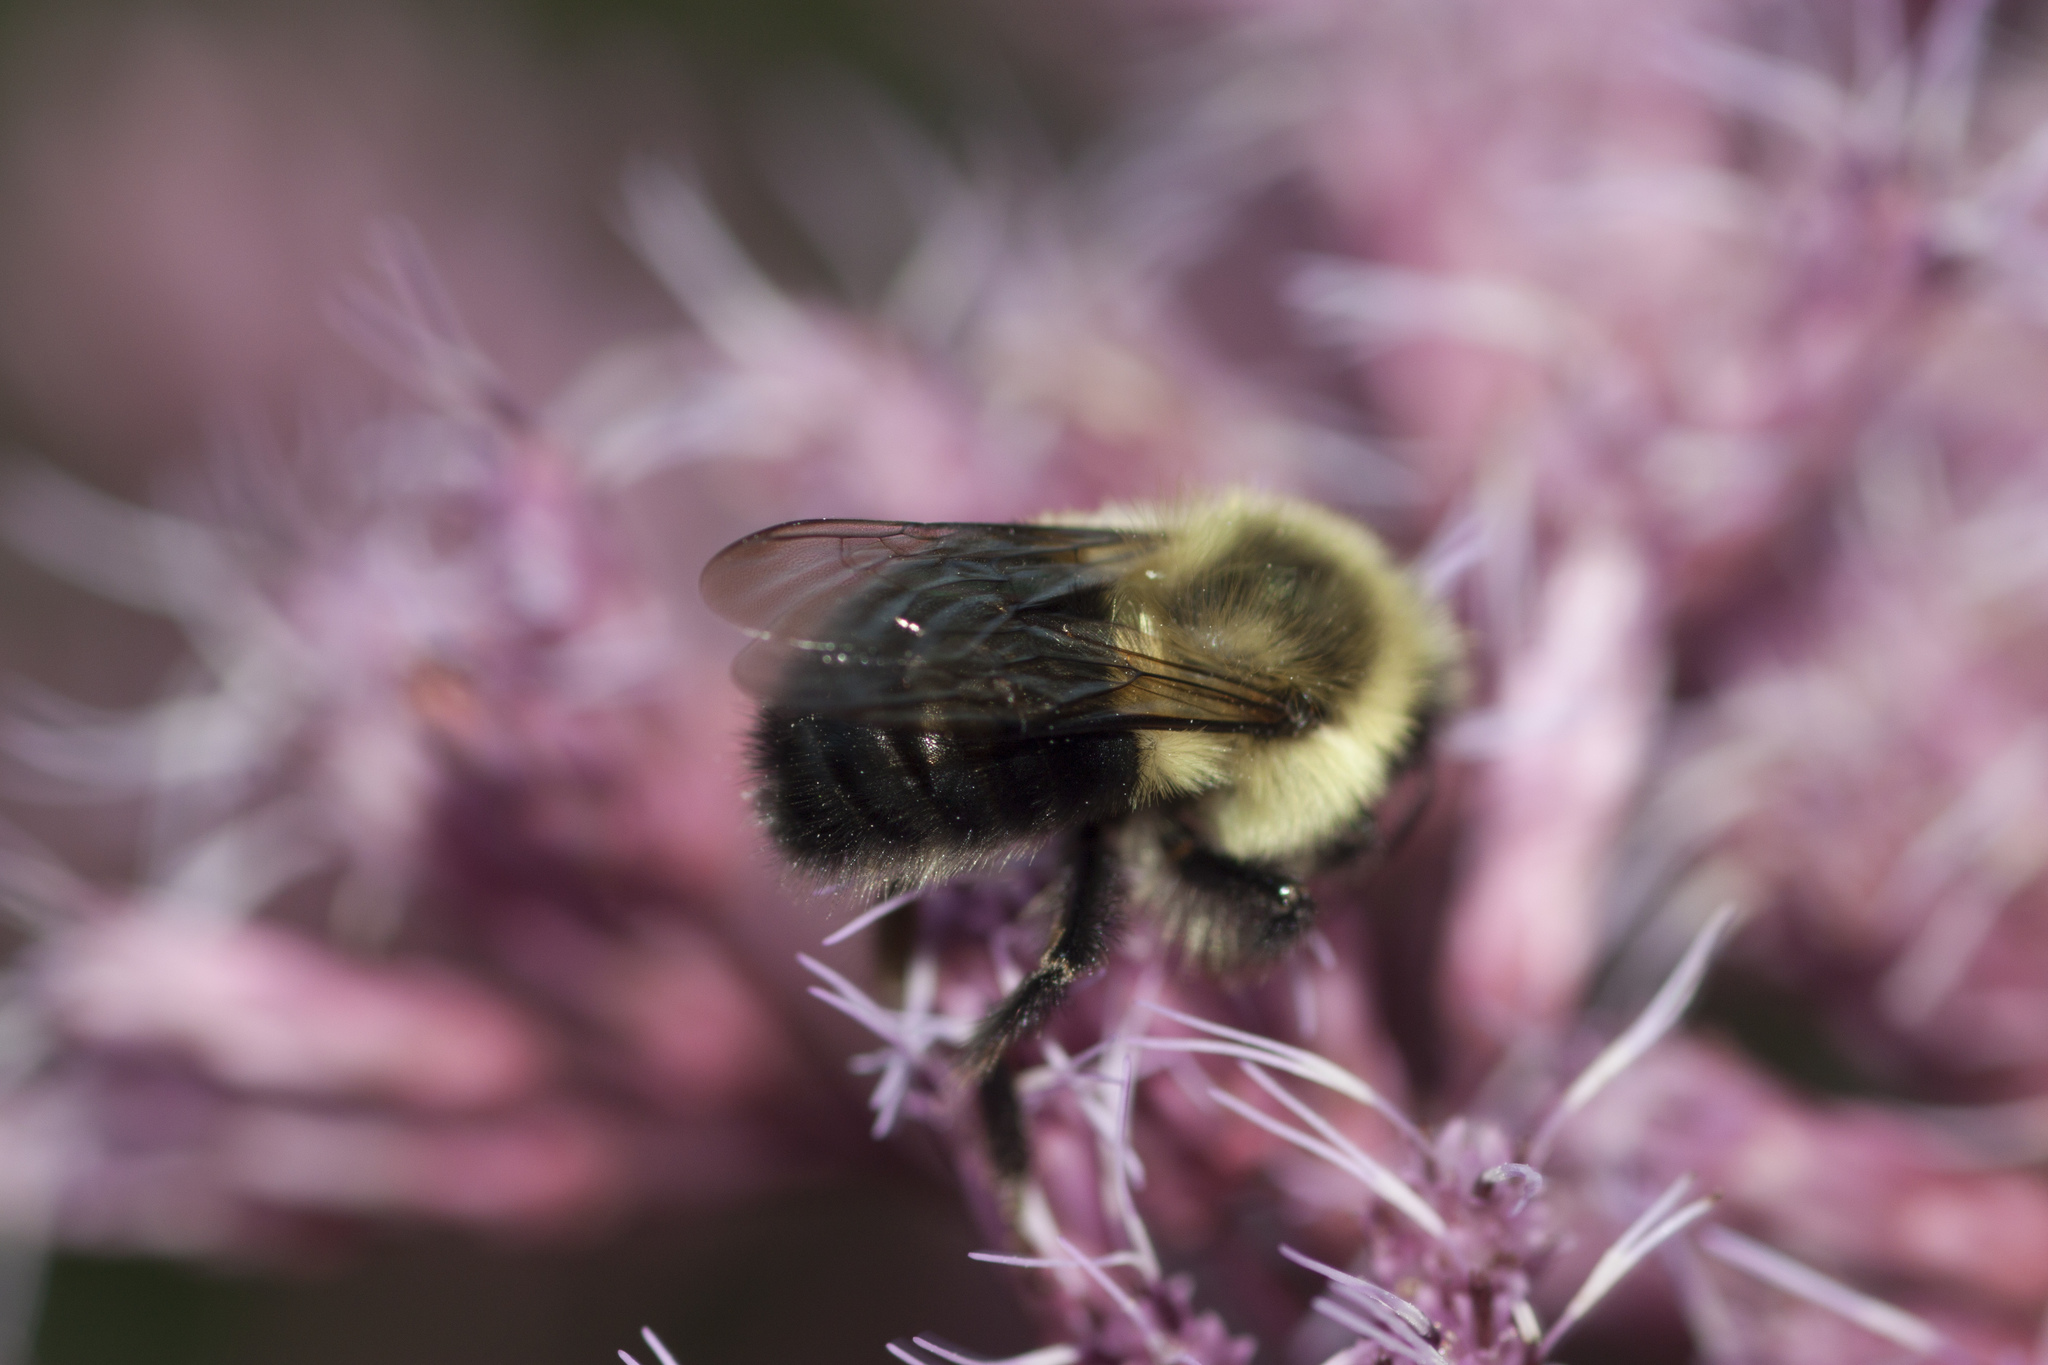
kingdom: Animalia
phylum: Arthropoda
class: Insecta
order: Hymenoptera
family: Apidae
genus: Bombus
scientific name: Bombus impatiens
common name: Common eastern bumble bee
